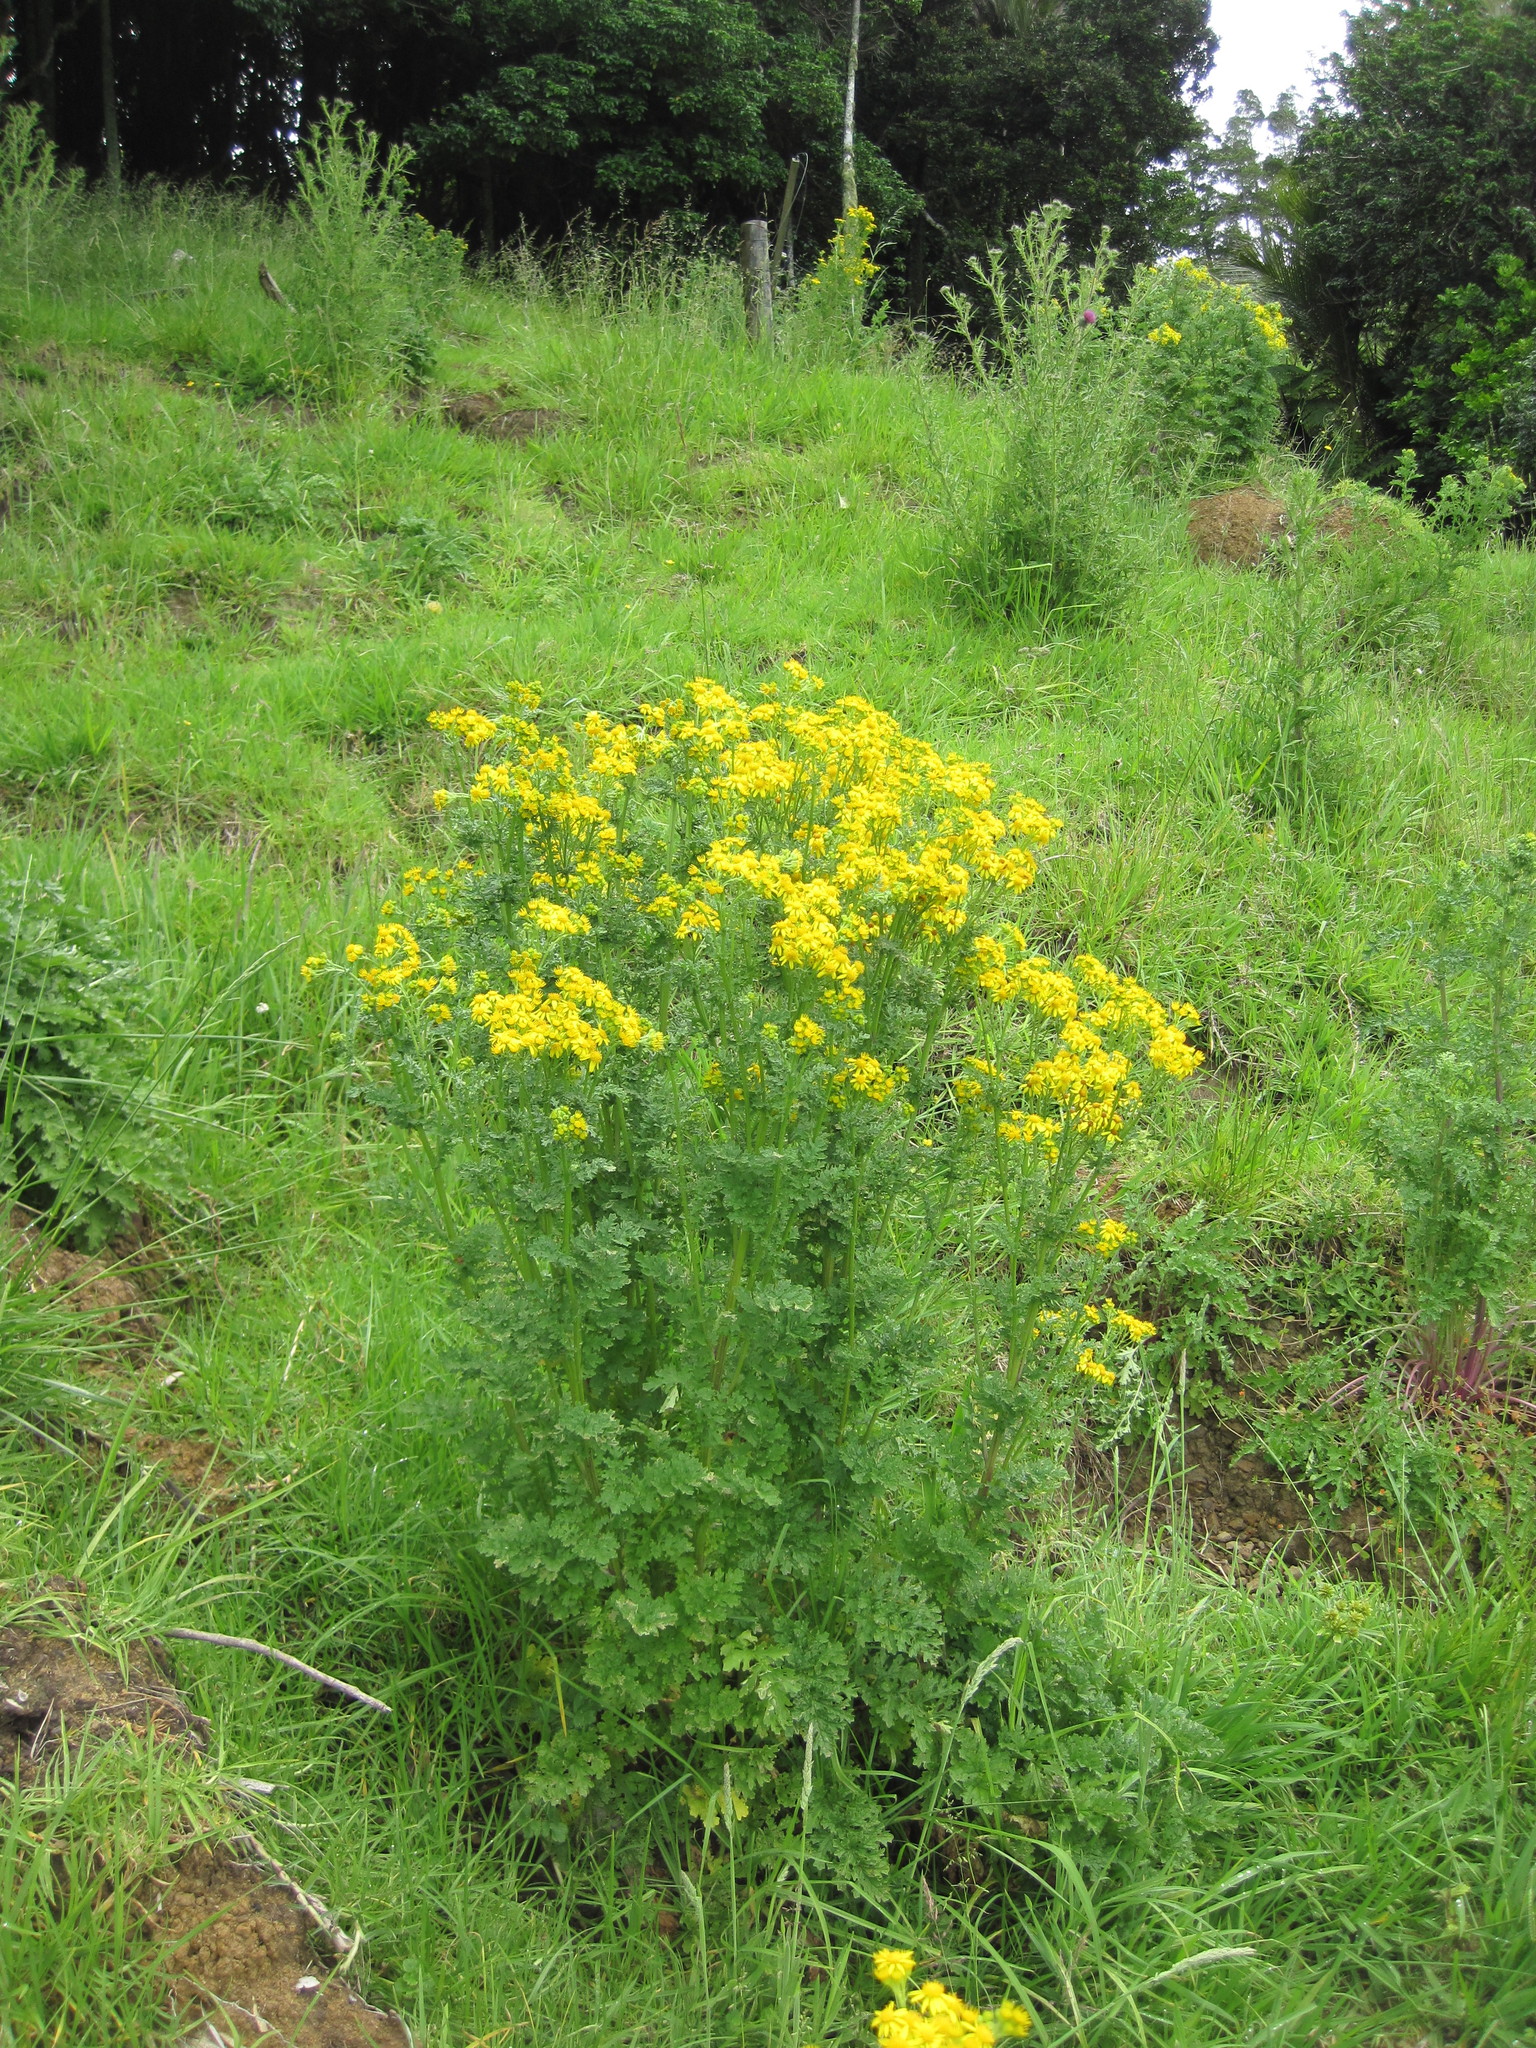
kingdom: Plantae
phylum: Tracheophyta
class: Magnoliopsida
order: Asterales
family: Asteraceae
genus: Jacobaea
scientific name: Jacobaea vulgaris
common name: Stinking willie
